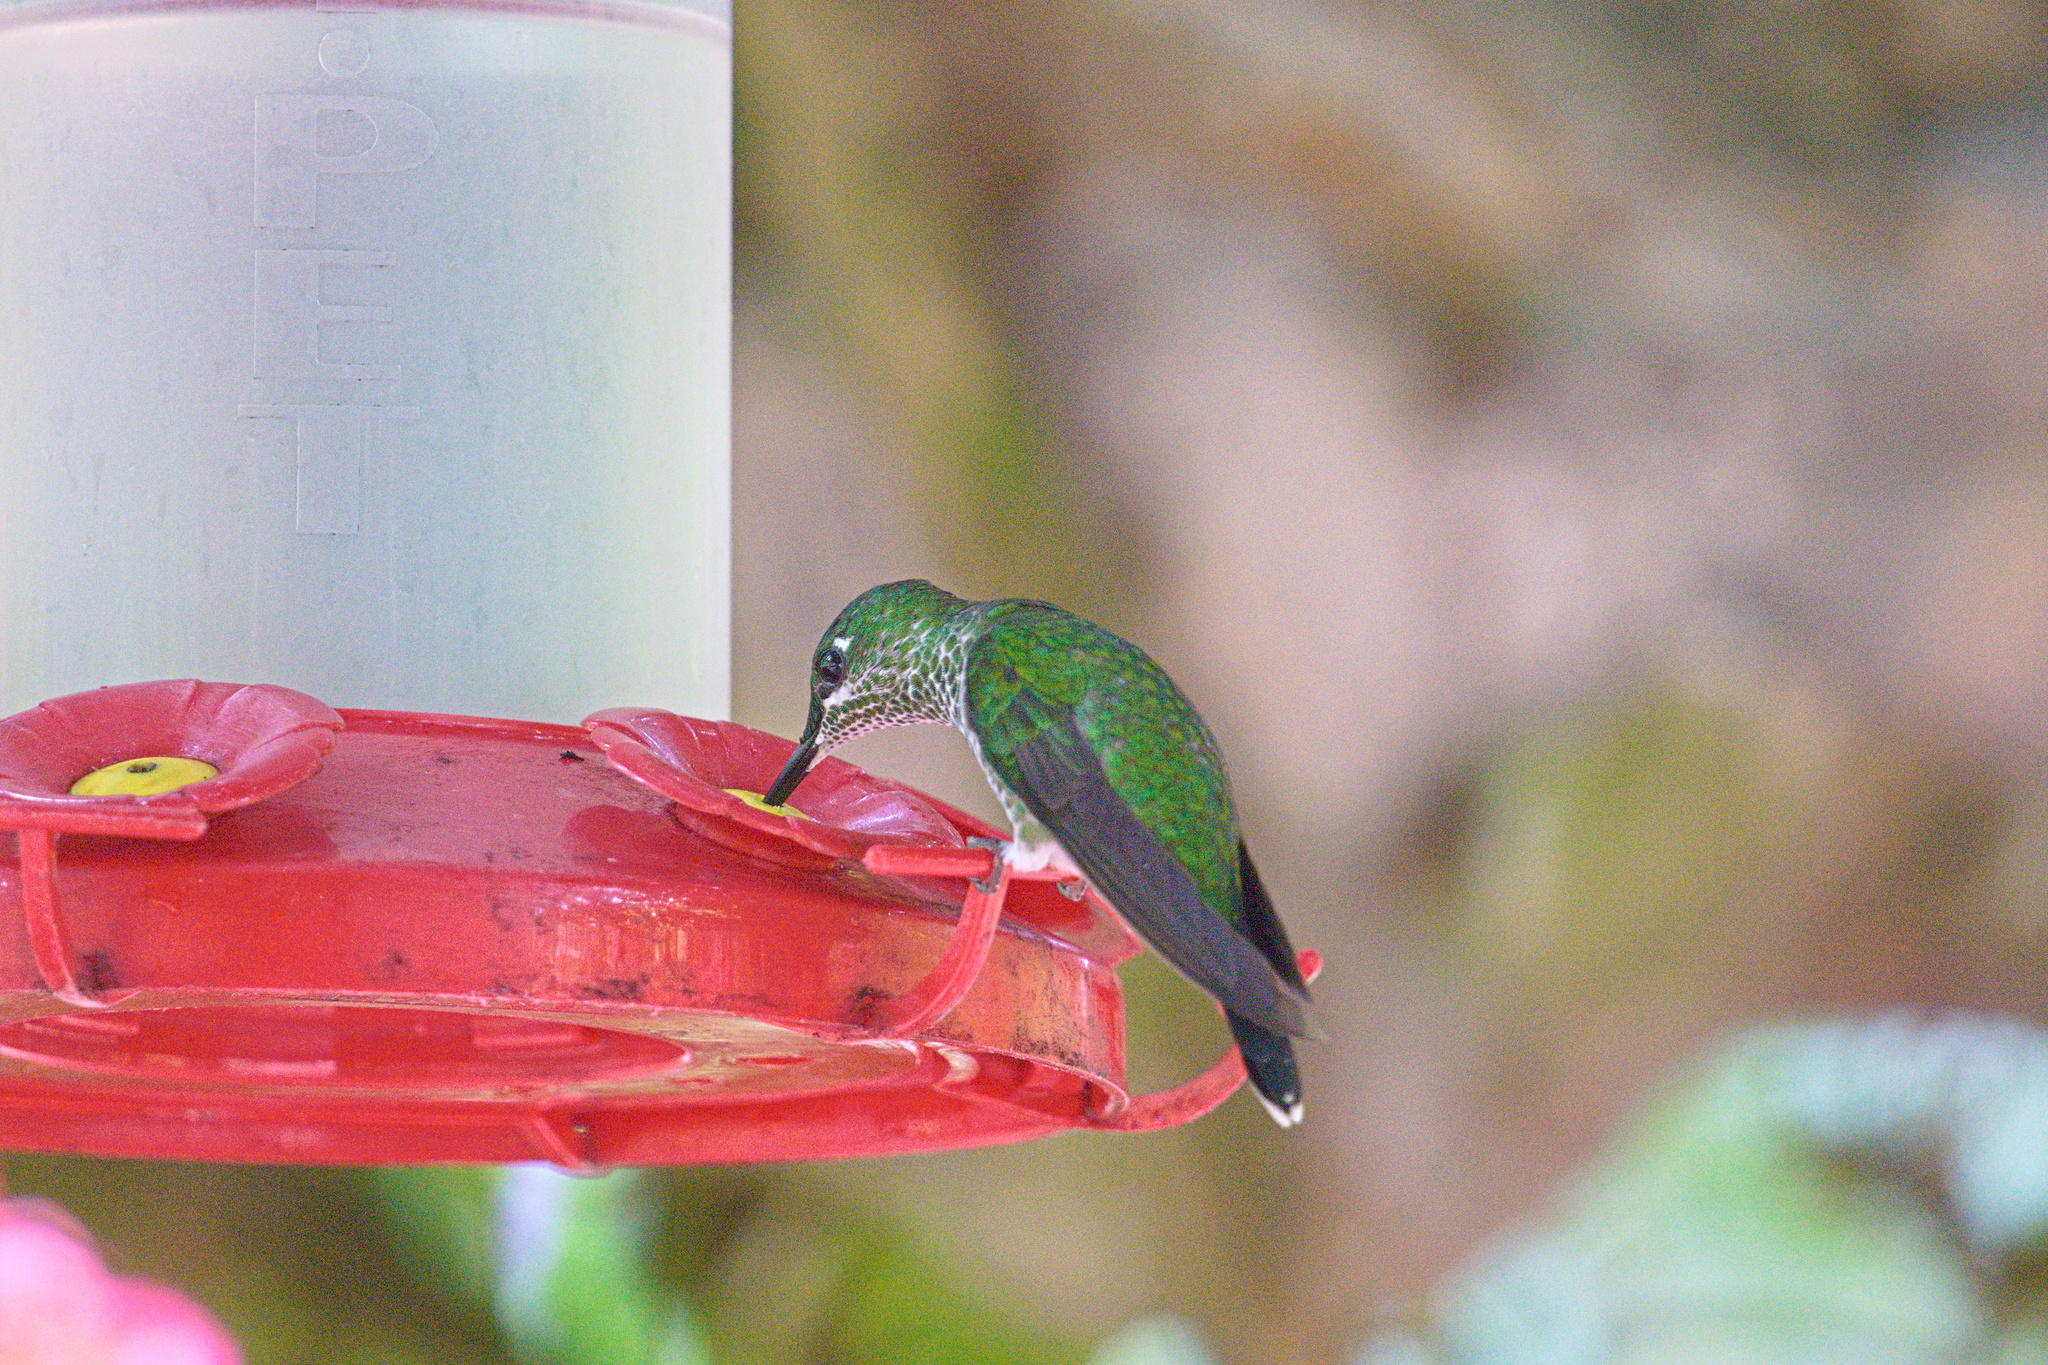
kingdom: Animalia
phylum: Chordata
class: Aves
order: Apodiformes
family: Trochilidae
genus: Heliodoxa
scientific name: Heliodoxa jacula
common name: Green-crowned brilliant
